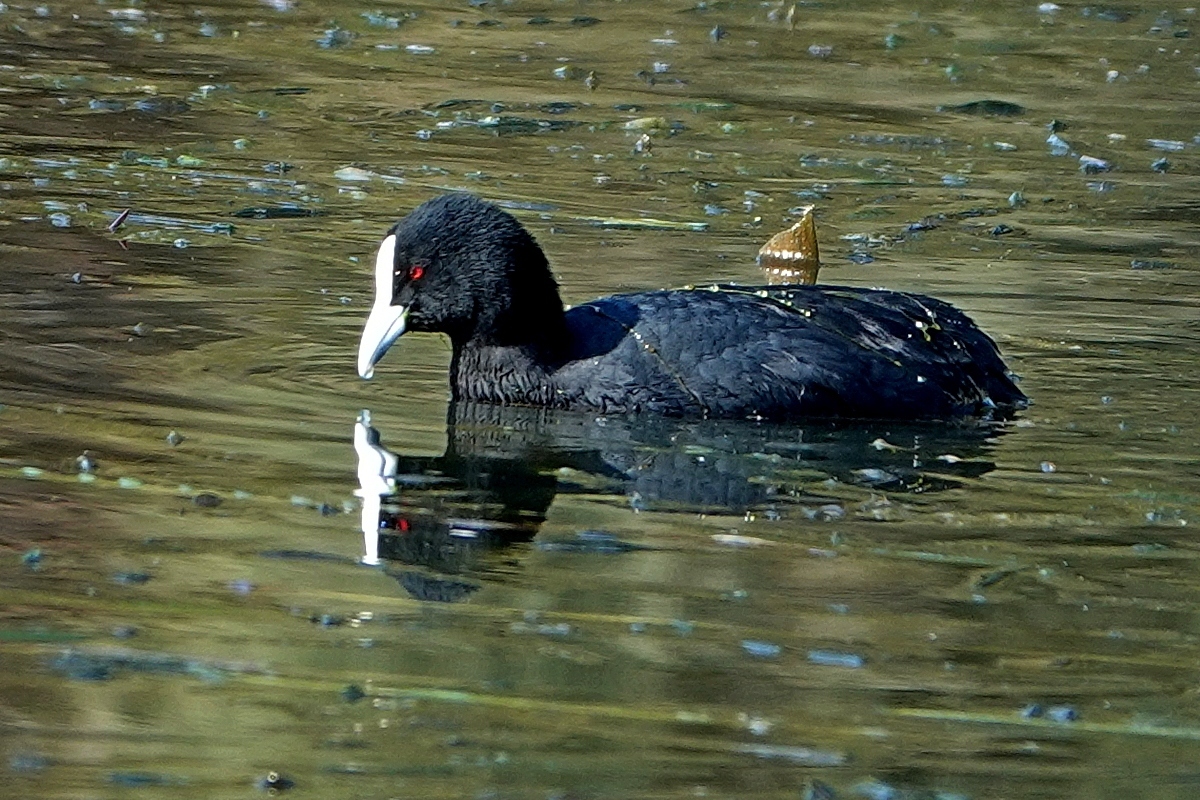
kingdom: Animalia
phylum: Chordata
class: Aves
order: Gruiformes
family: Rallidae
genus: Fulica
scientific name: Fulica atra
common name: Eurasian coot
